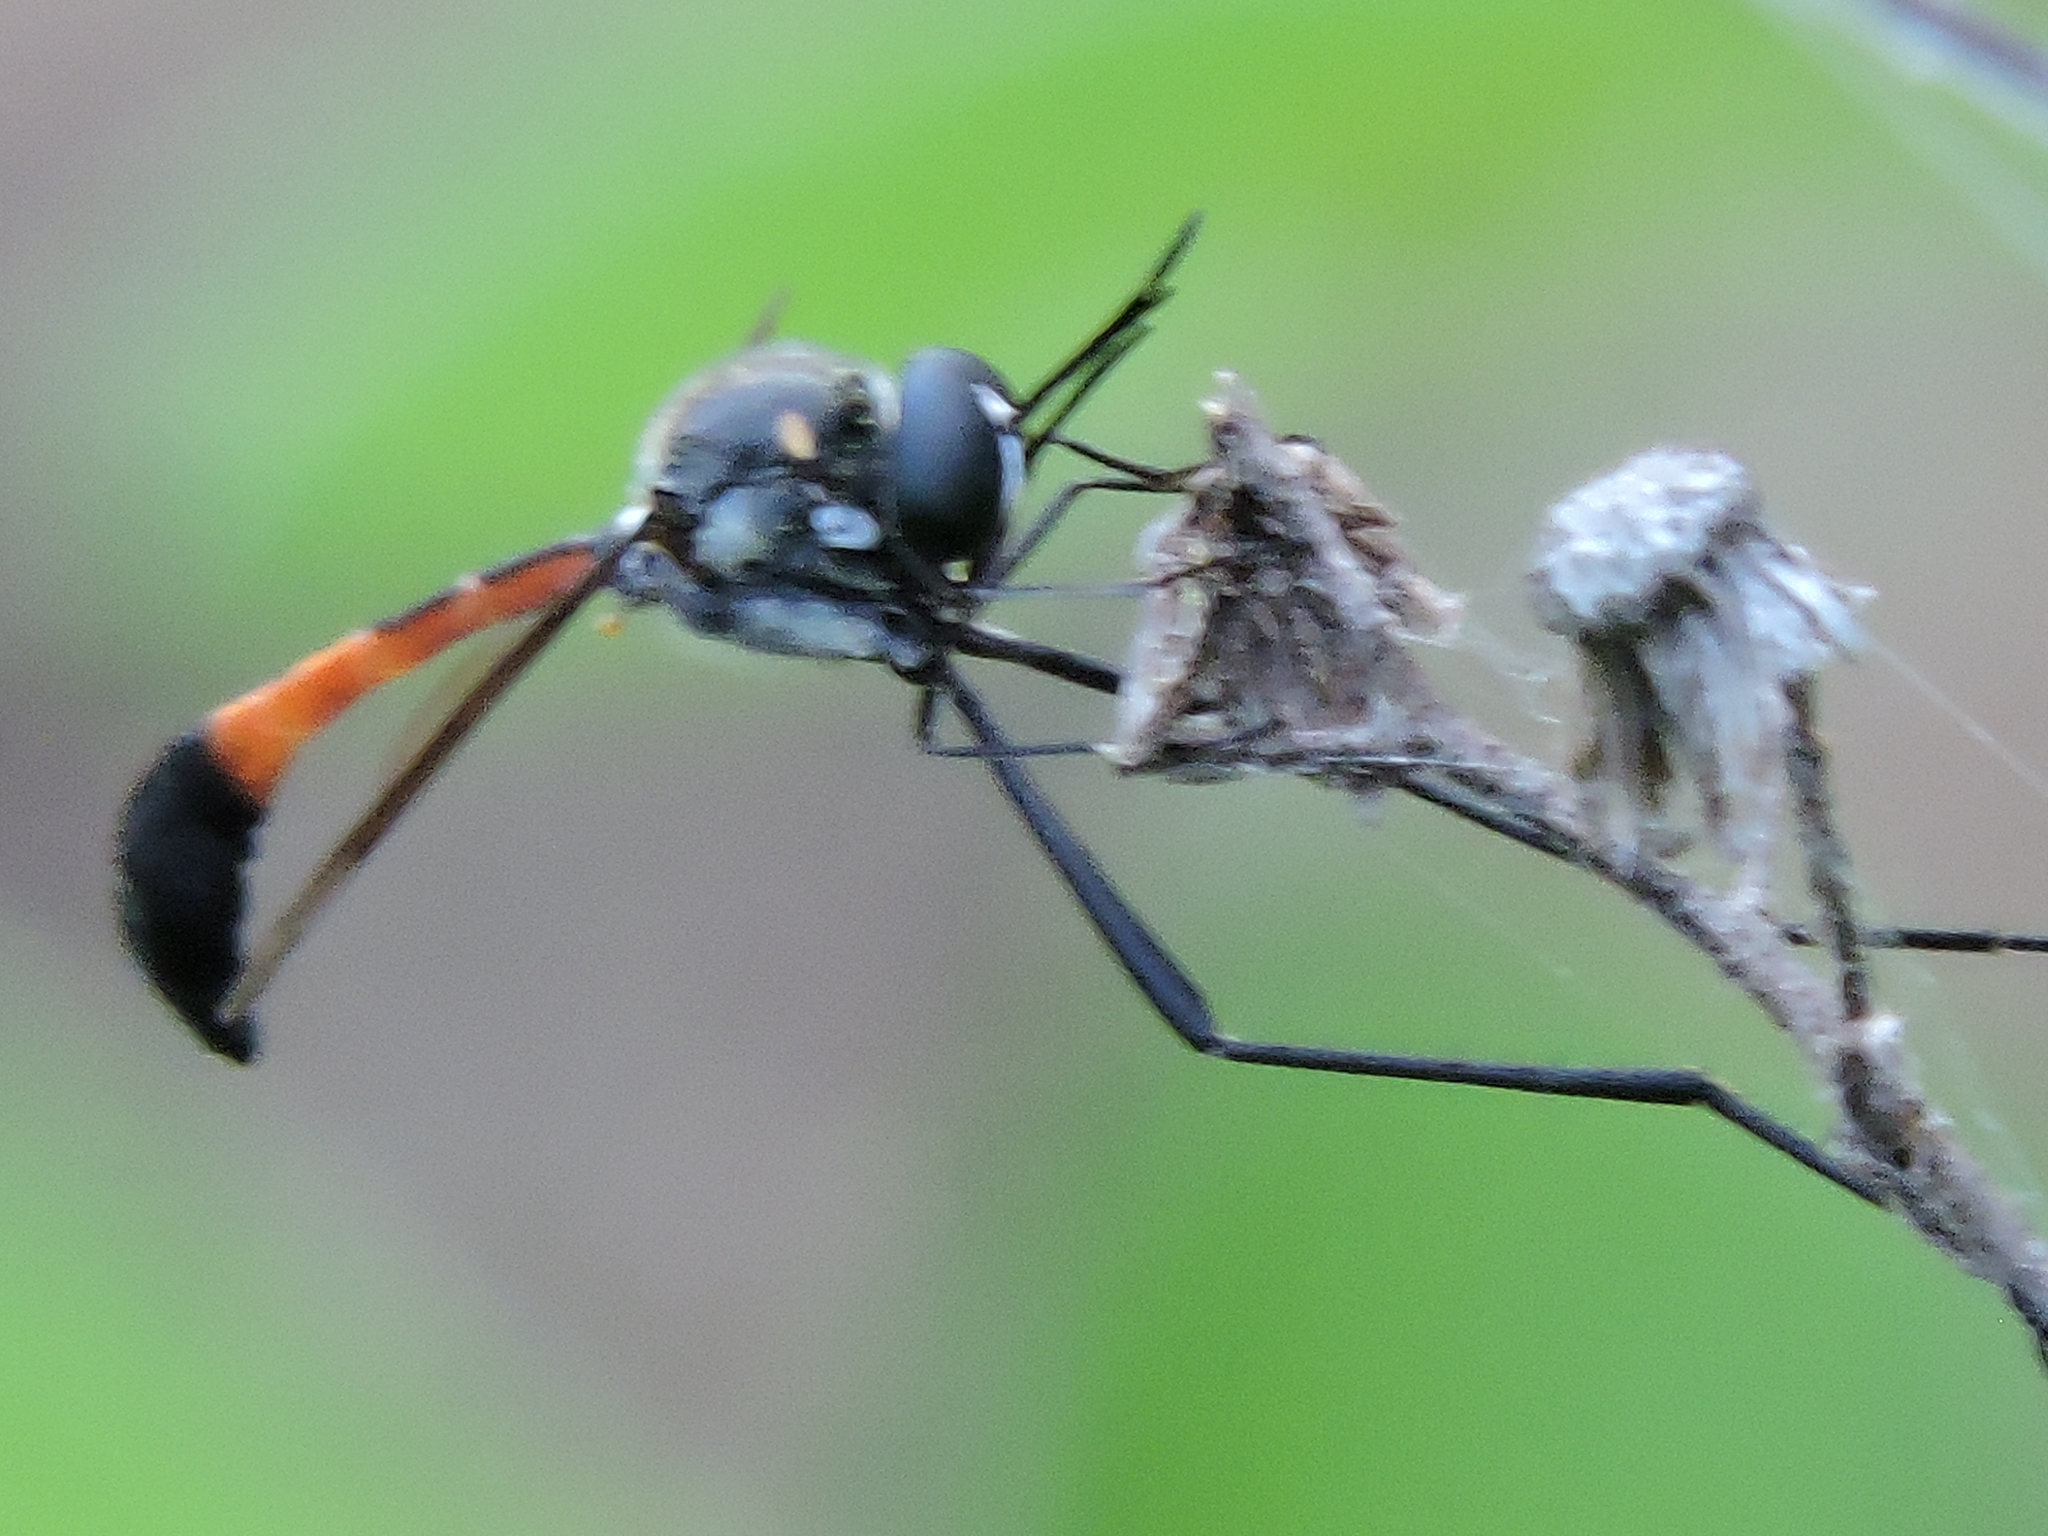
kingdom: Animalia
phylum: Arthropoda
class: Insecta
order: Diptera
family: Bombyliidae
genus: Systropus
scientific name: Systropus angulatus
